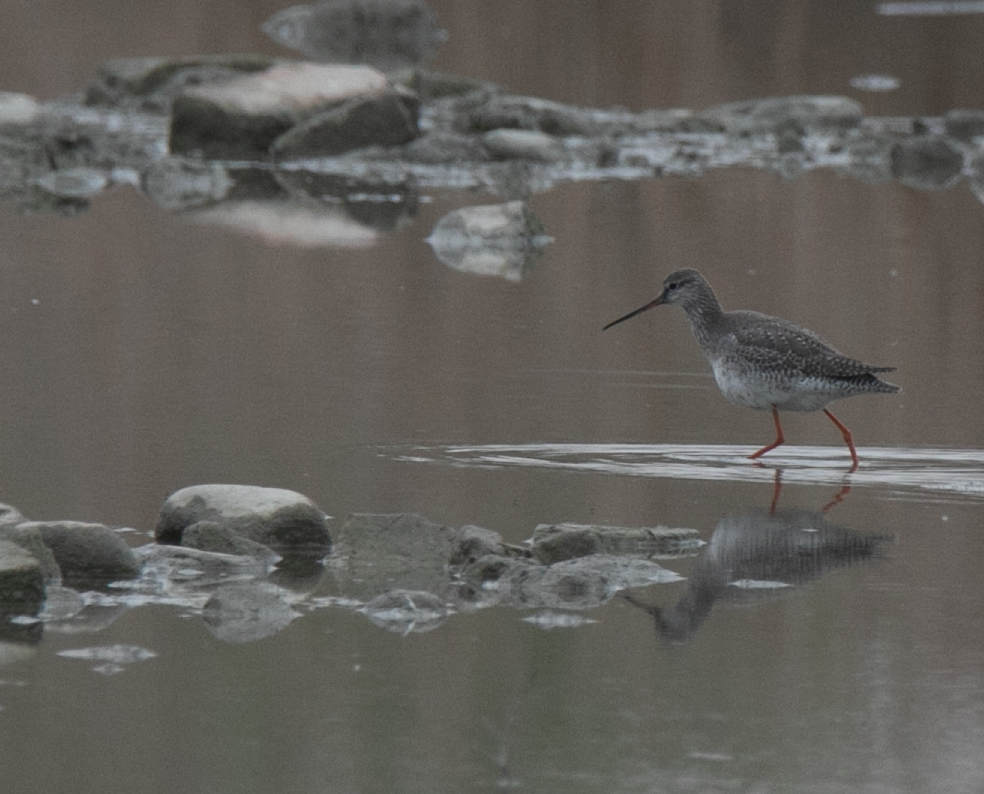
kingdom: Animalia
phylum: Chordata
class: Aves
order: Charadriiformes
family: Scolopacidae
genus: Tringa
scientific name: Tringa erythropus
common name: Spotted redshank
